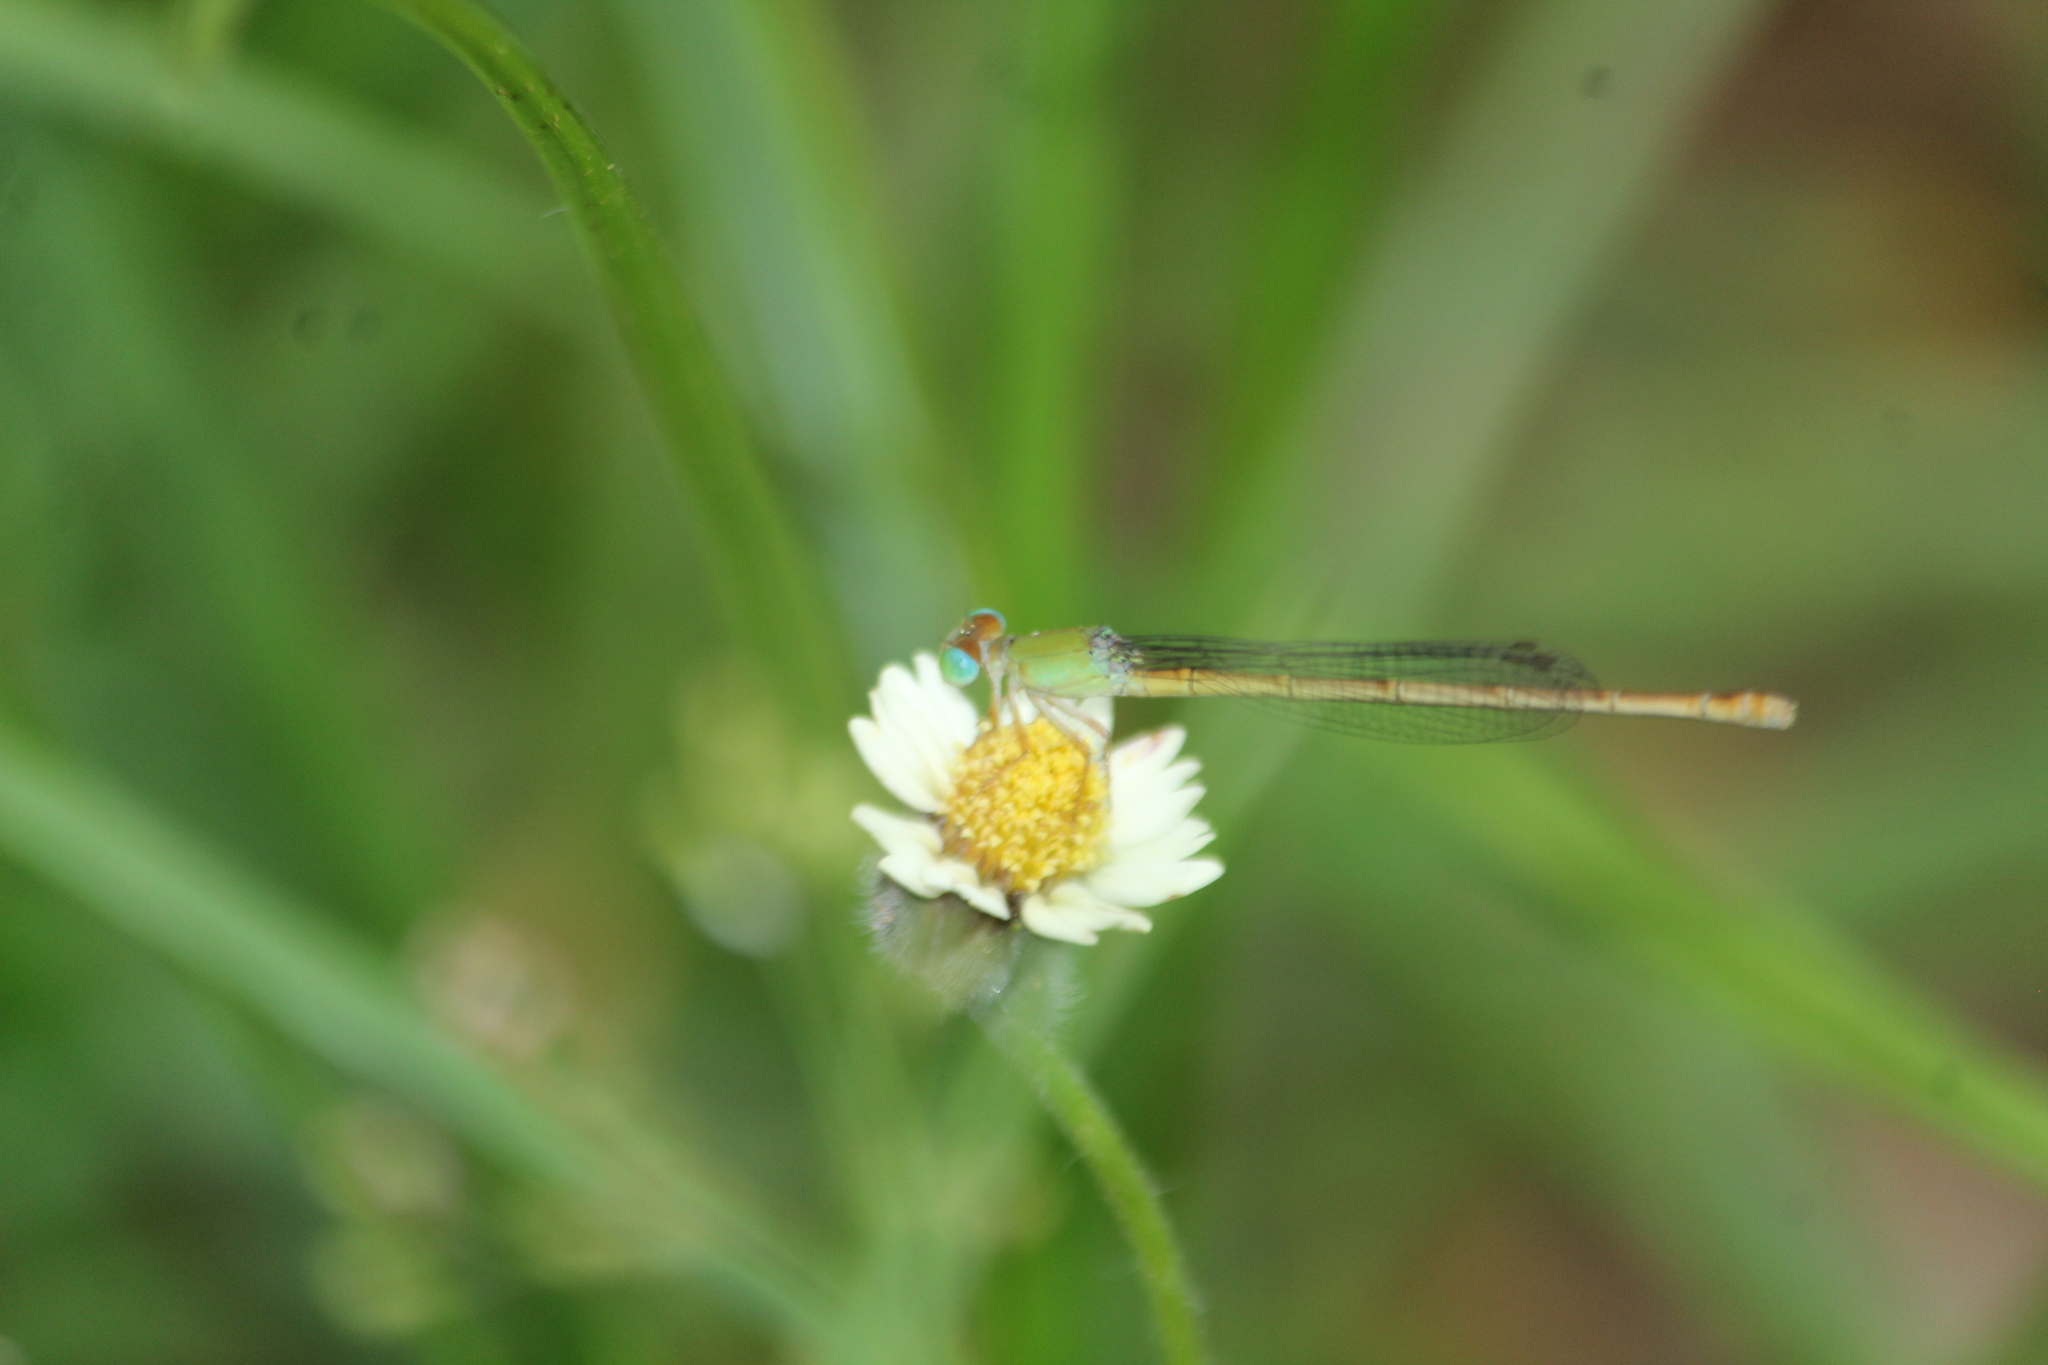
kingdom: Animalia
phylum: Arthropoda
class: Insecta
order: Odonata
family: Coenagrionidae
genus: Ceriagrion
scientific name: Ceriagrion coromandelianum
